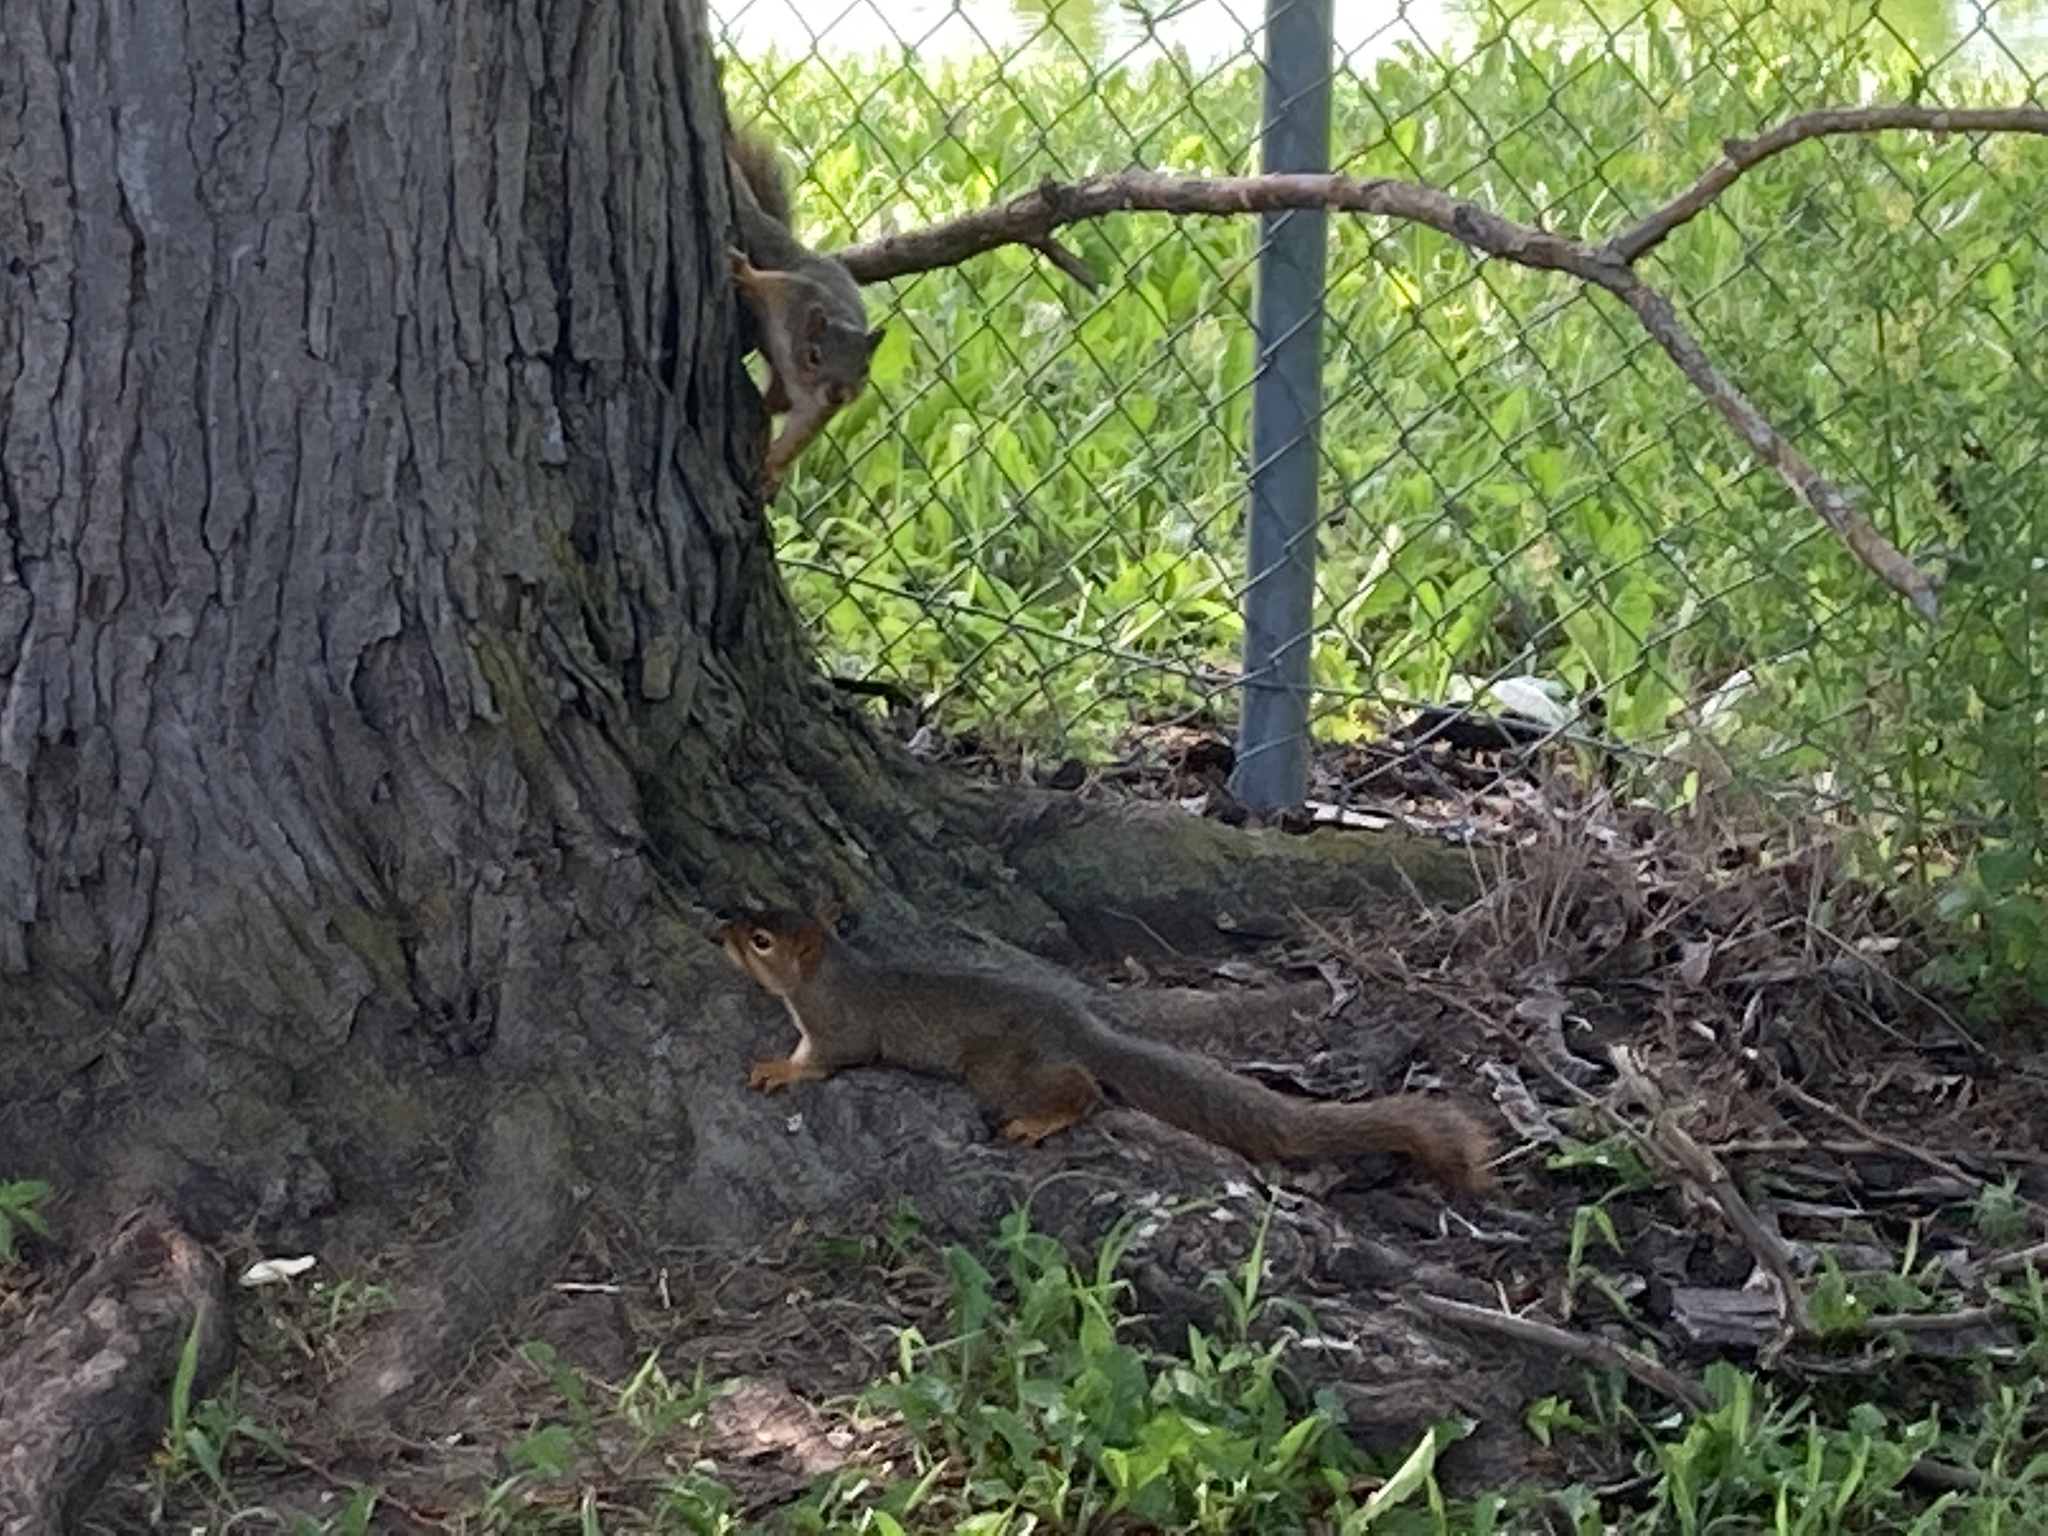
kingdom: Animalia
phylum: Chordata
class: Mammalia
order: Rodentia
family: Sciuridae
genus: Sciurus
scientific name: Sciurus niger
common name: Fox squirrel
